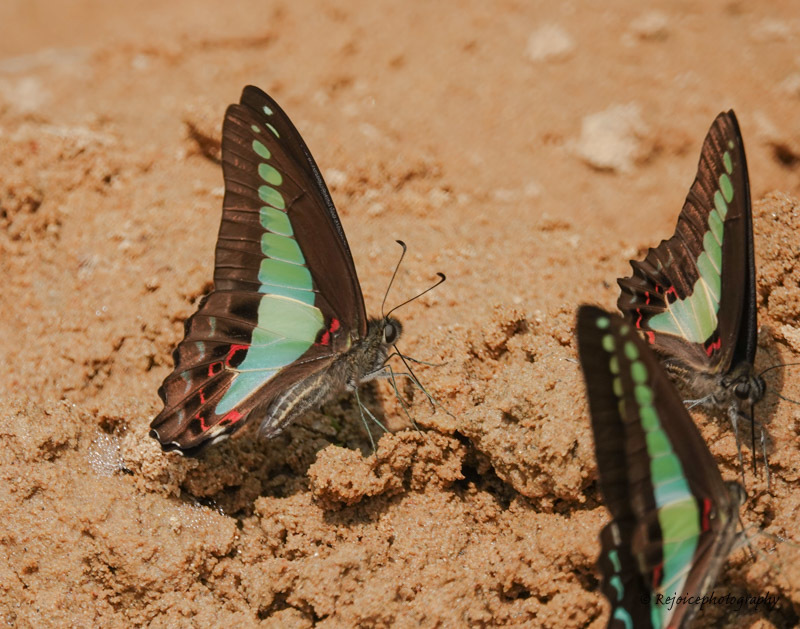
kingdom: Fungi
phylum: Ascomycota
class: Sordariomycetes
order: Microascales
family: Microascaceae
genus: Graphium
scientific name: Graphium sarpedon
